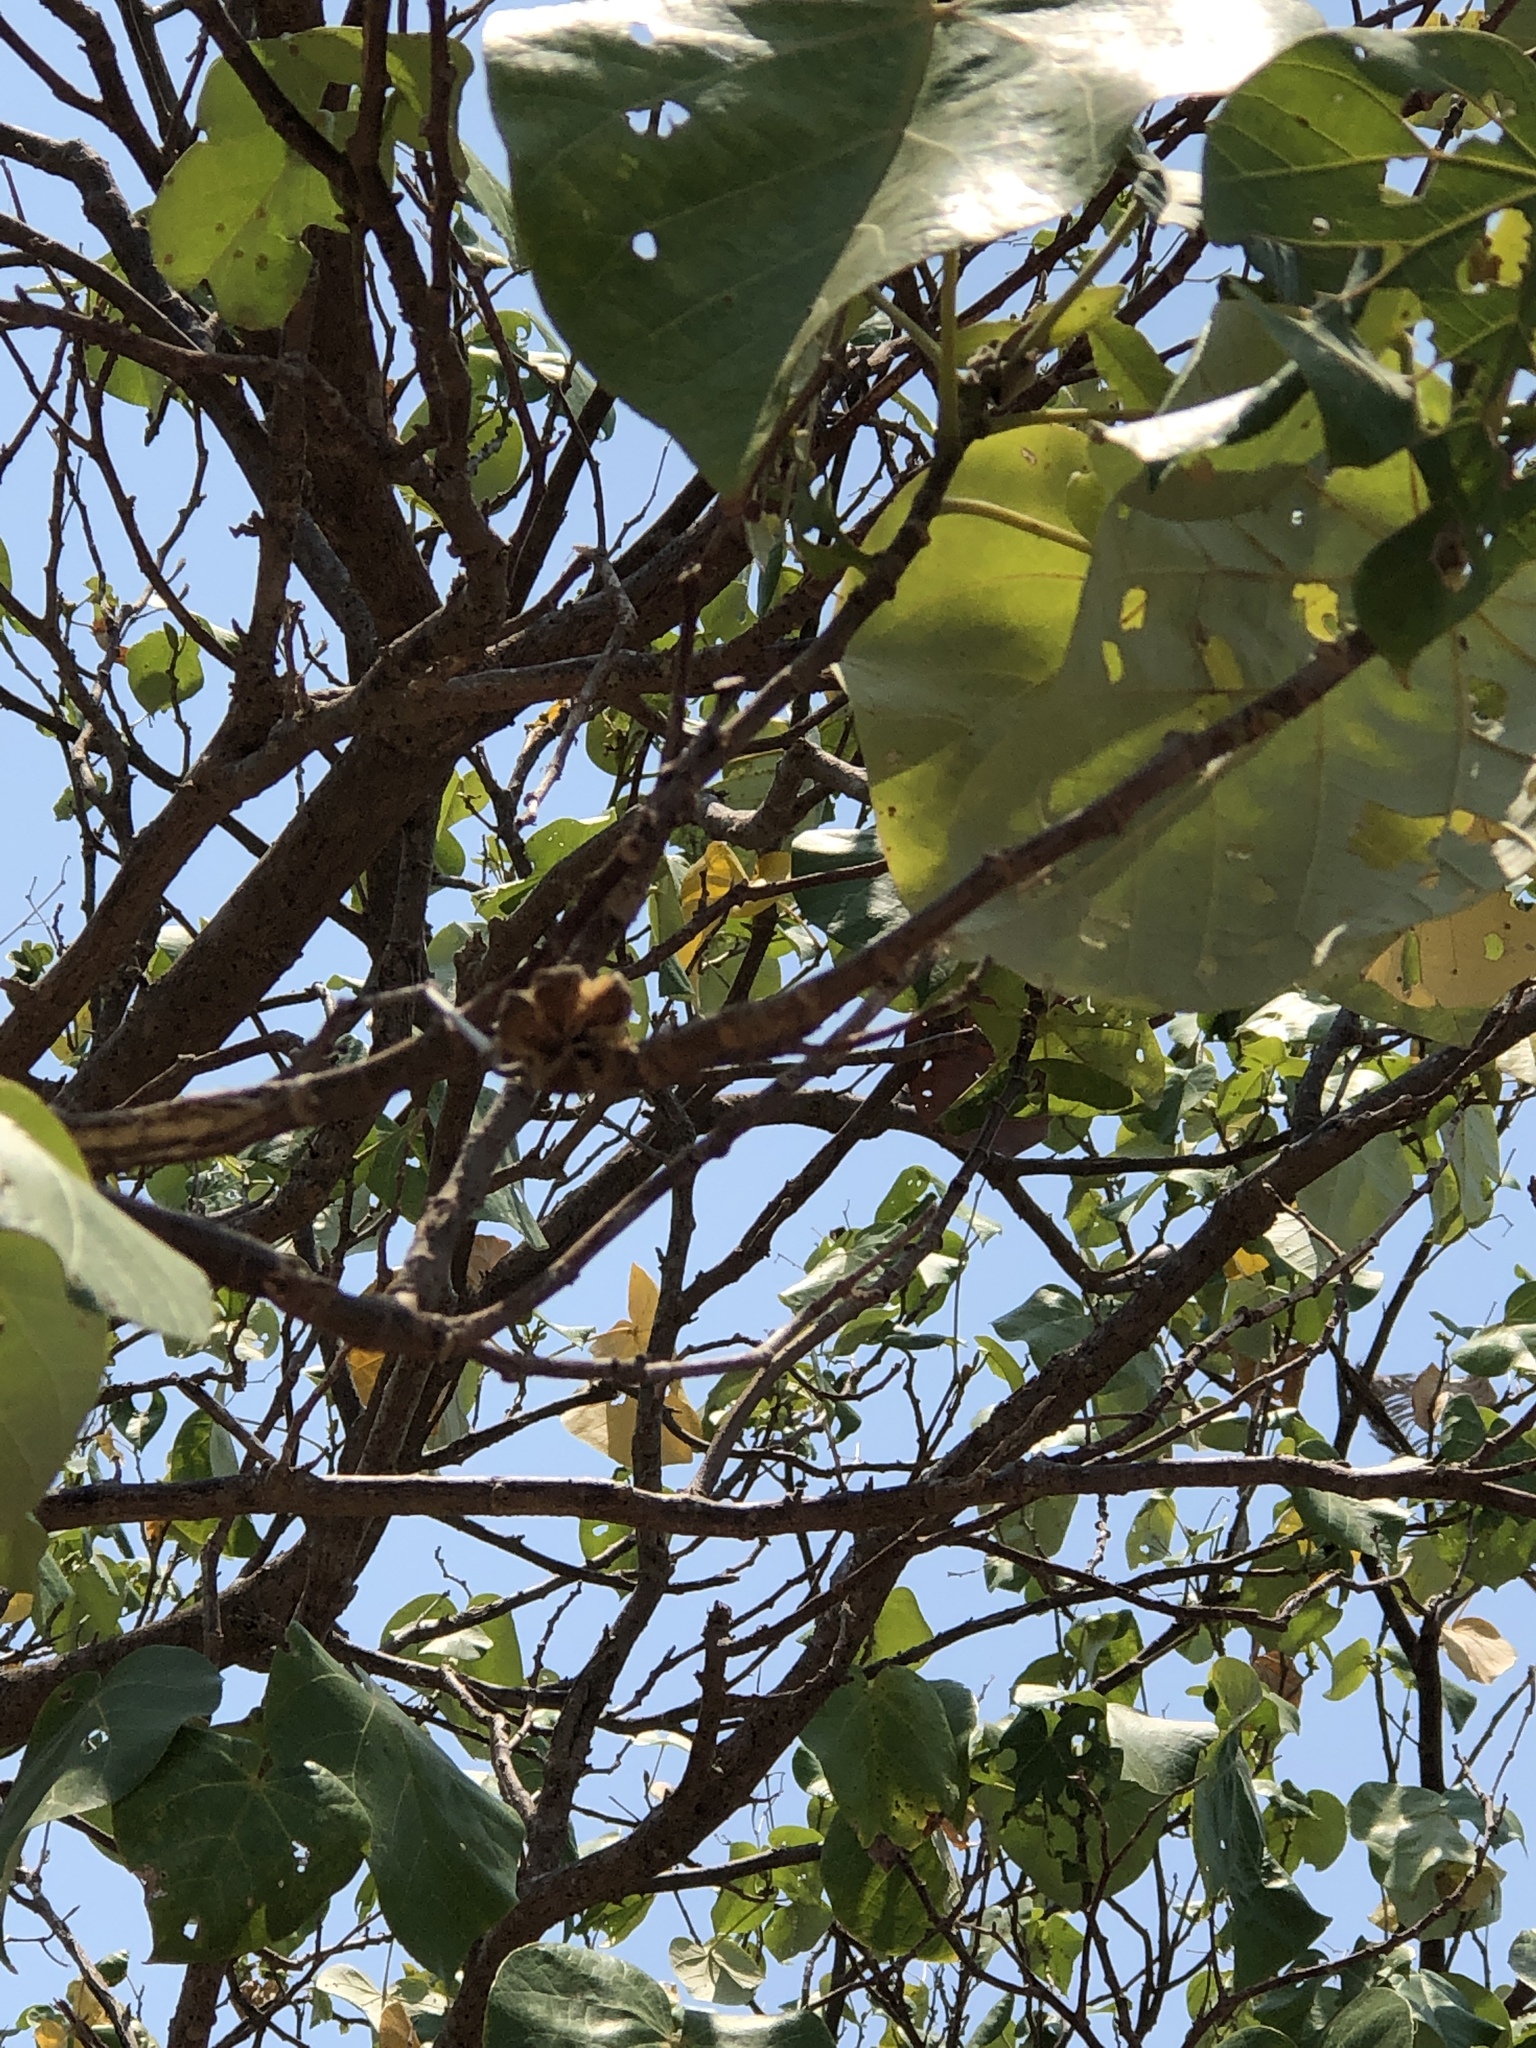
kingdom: Plantae
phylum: Tracheophyta
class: Magnoliopsida
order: Malvales
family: Malvaceae
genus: Talipariti
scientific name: Talipariti tiliaceum
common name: Sea hibiscus
